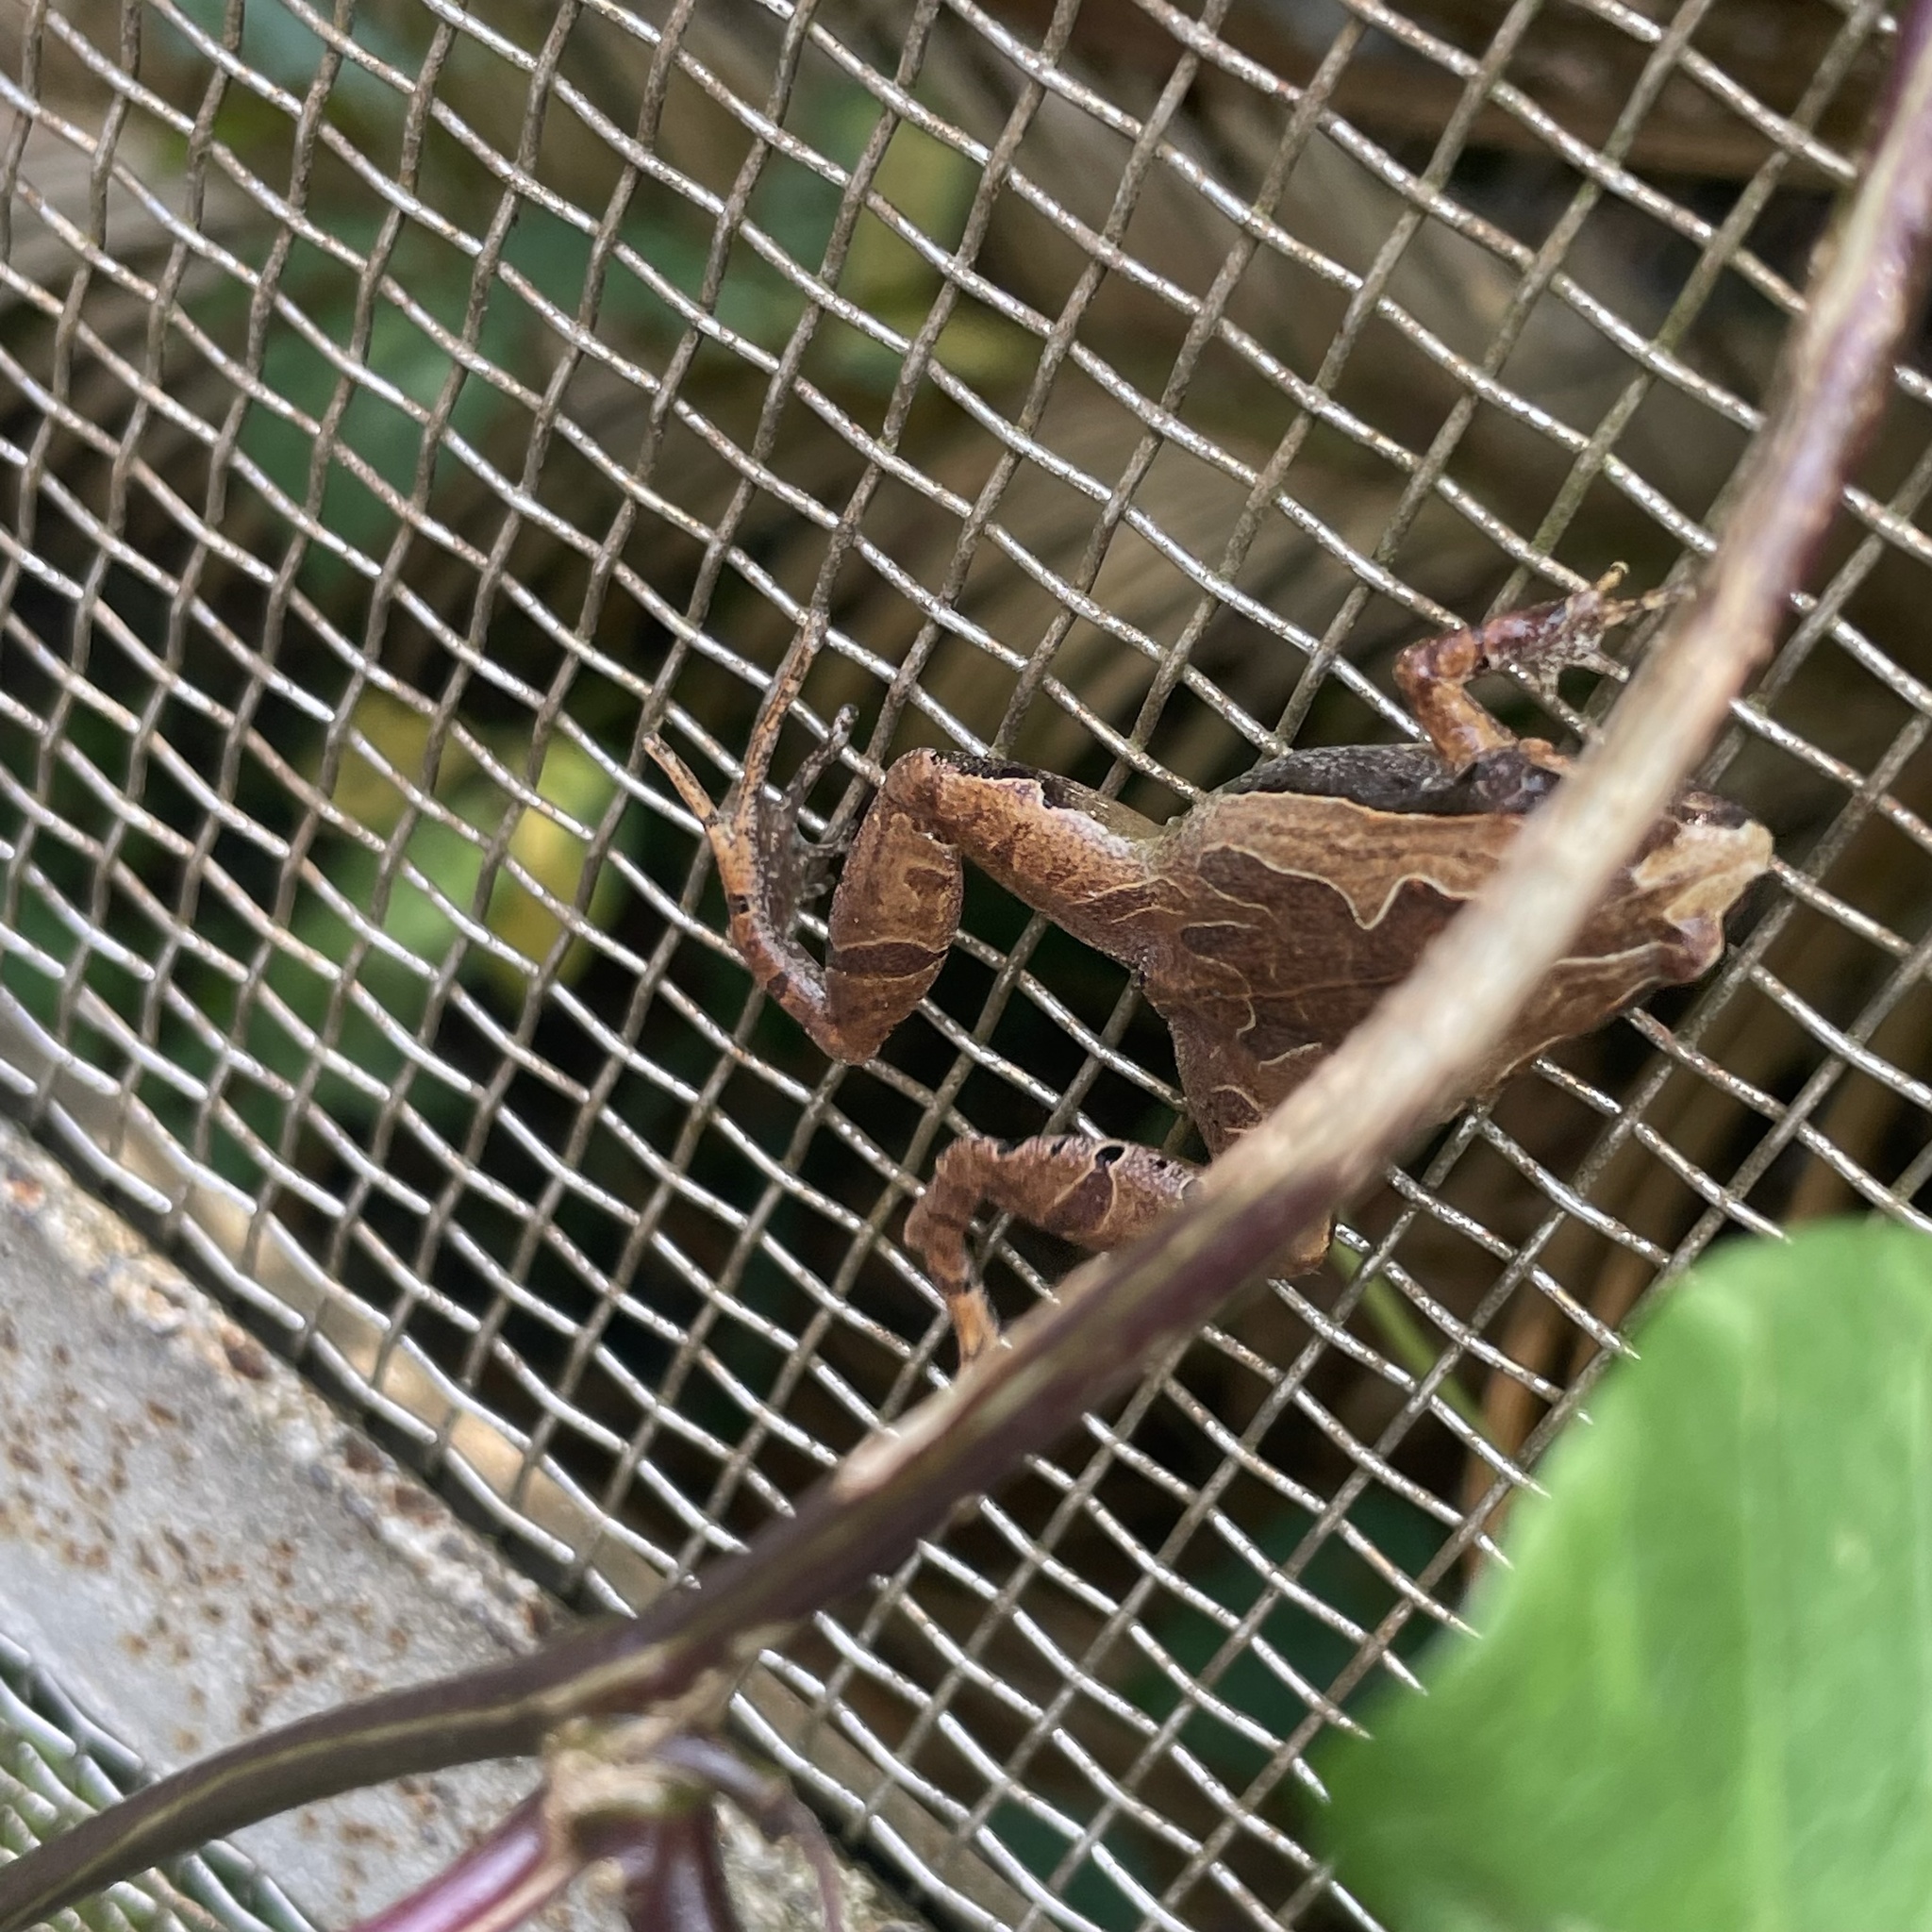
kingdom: Animalia
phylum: Chordata
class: Amphibia
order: Anura
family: Microhylidae
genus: Microhyla
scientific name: Microhyla okinavensis
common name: Okinawa narrow-mouthed toad
